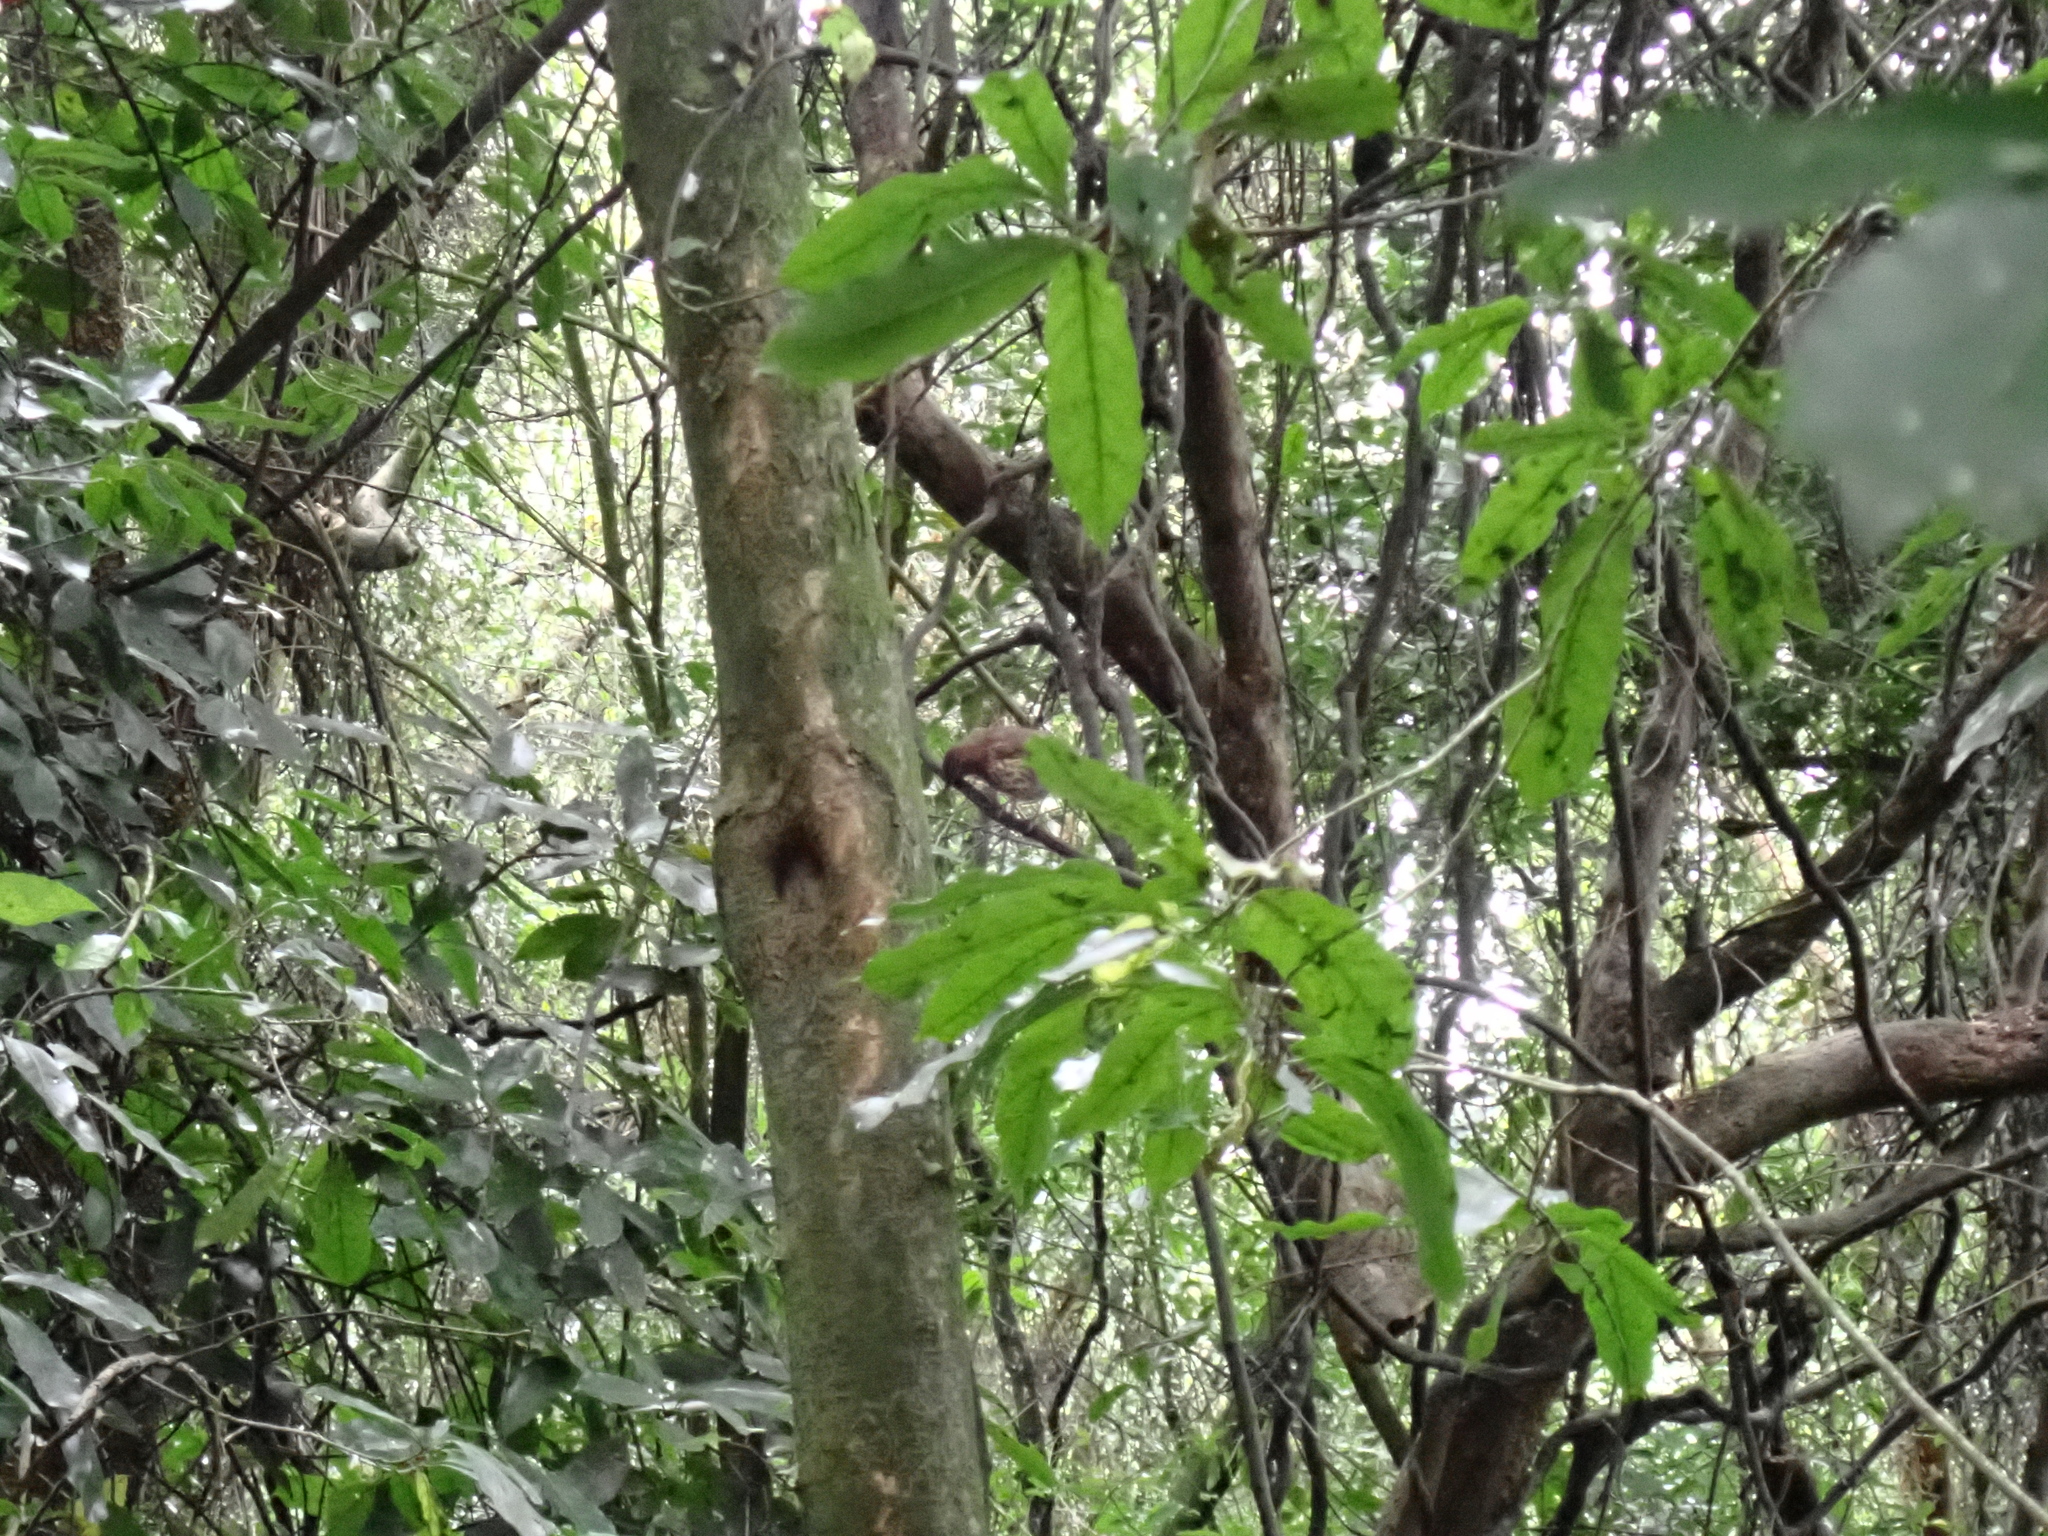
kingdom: Animalia
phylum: Chordata
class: Aves
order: Passeriformes
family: Turdidae
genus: Turdus
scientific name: Turdus philomelos
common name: Song thrush
